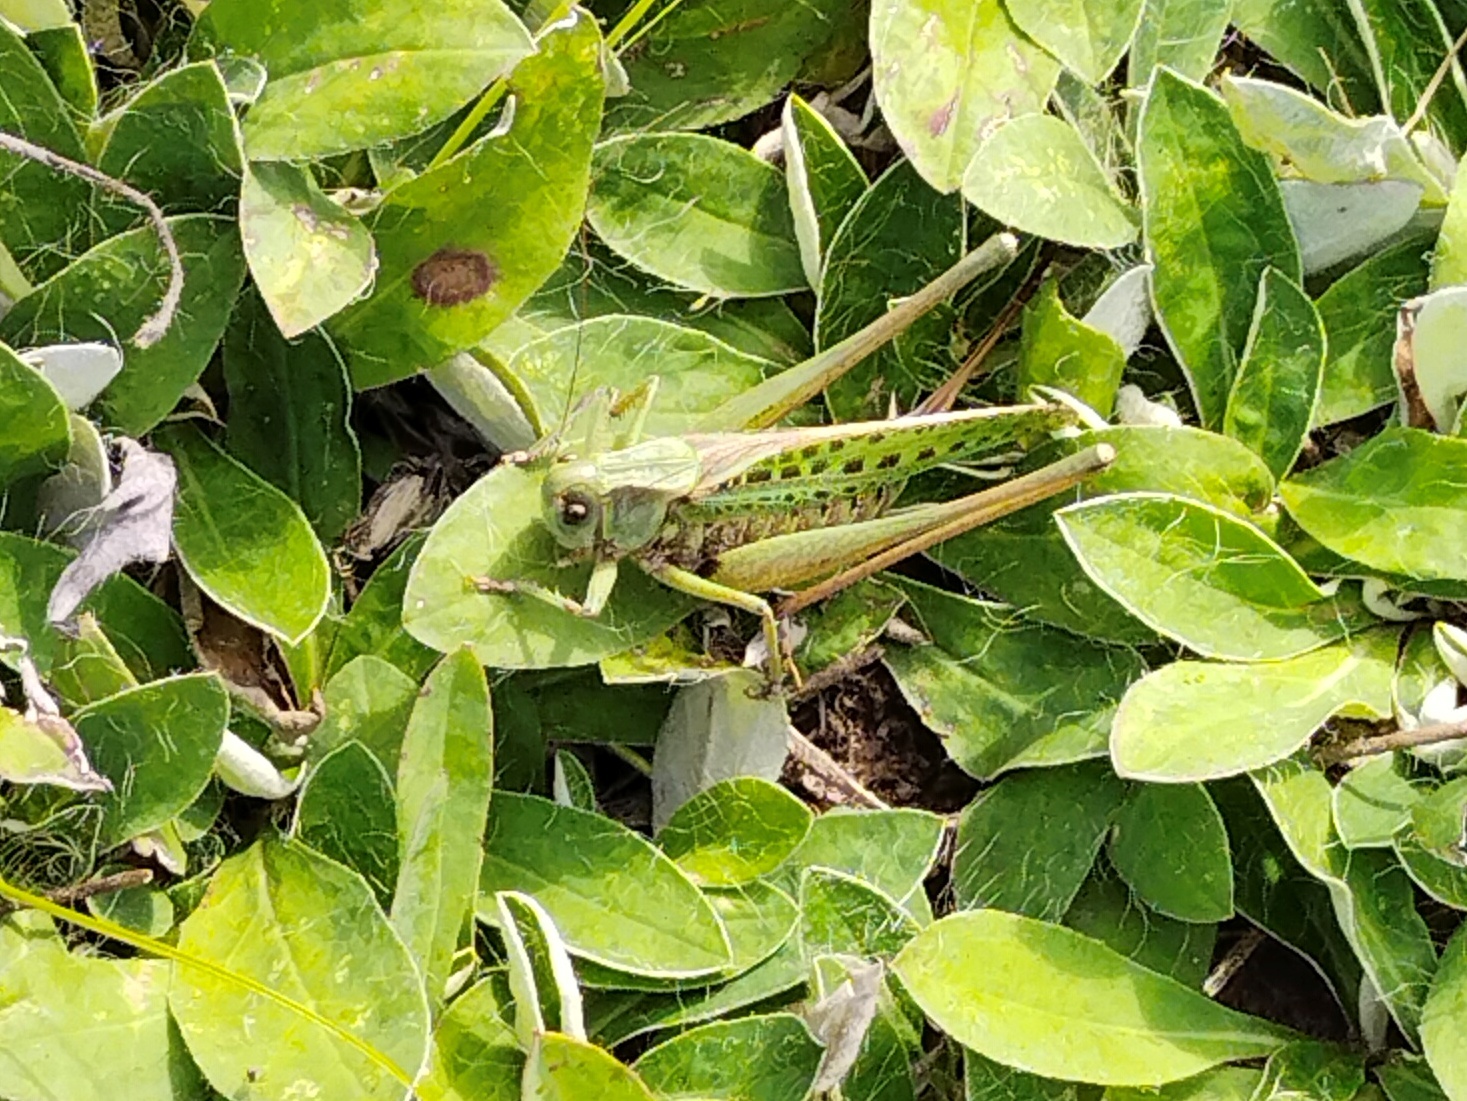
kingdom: Animalia
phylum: Arthropoda
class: Insecta
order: Orthoptera
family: Tettigoniidae
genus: Decticus
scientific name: Decticus verrucivorus
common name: Wart-biter
